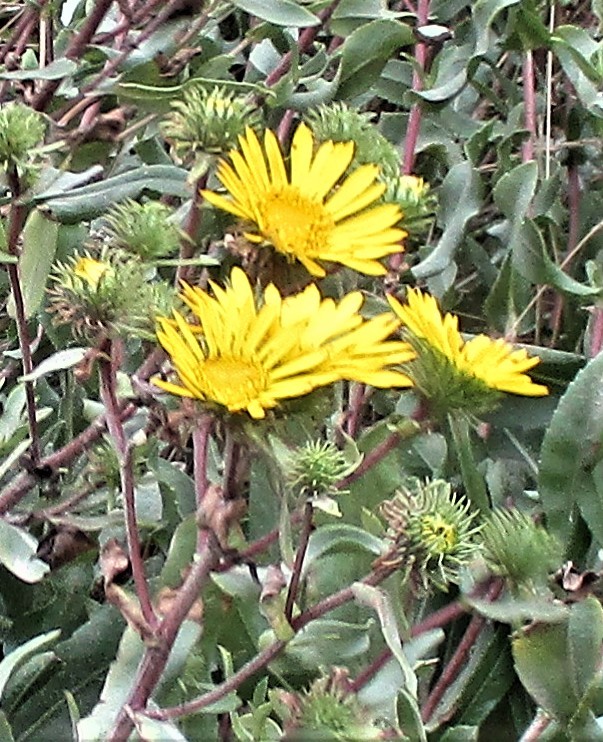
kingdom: Plantae
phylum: Tracheophyta
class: Magnoliopsida
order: Asterales
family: Asteraceae
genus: Grindelia
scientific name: Grindelia integrifolia
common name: Puget sound gumweed
